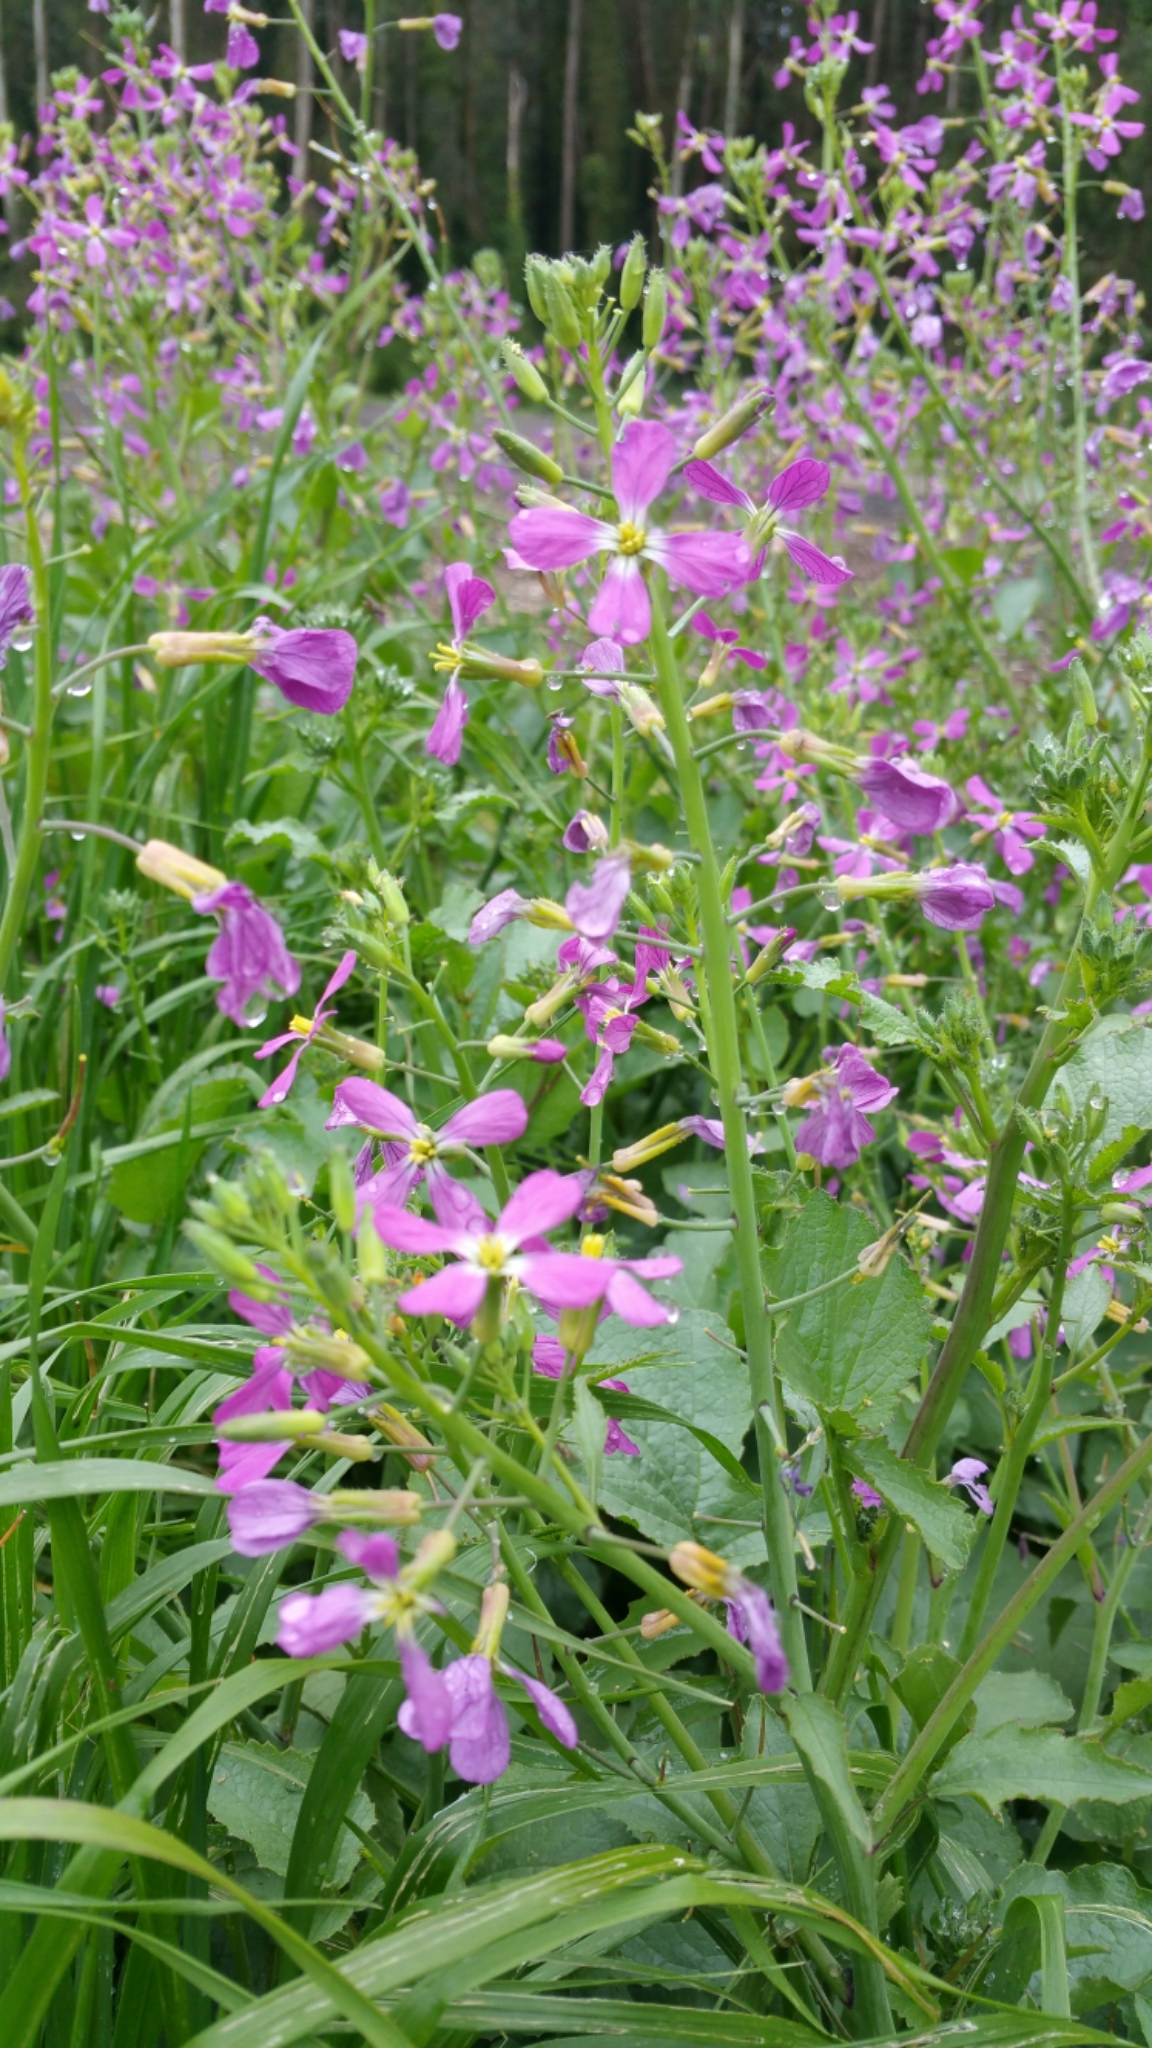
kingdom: Plantae
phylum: Tracheophyta
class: Magnoliopsida
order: Brassicales
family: Brassicaceae
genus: Raphanus
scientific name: Raphanus sativus
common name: Cultivated radish
